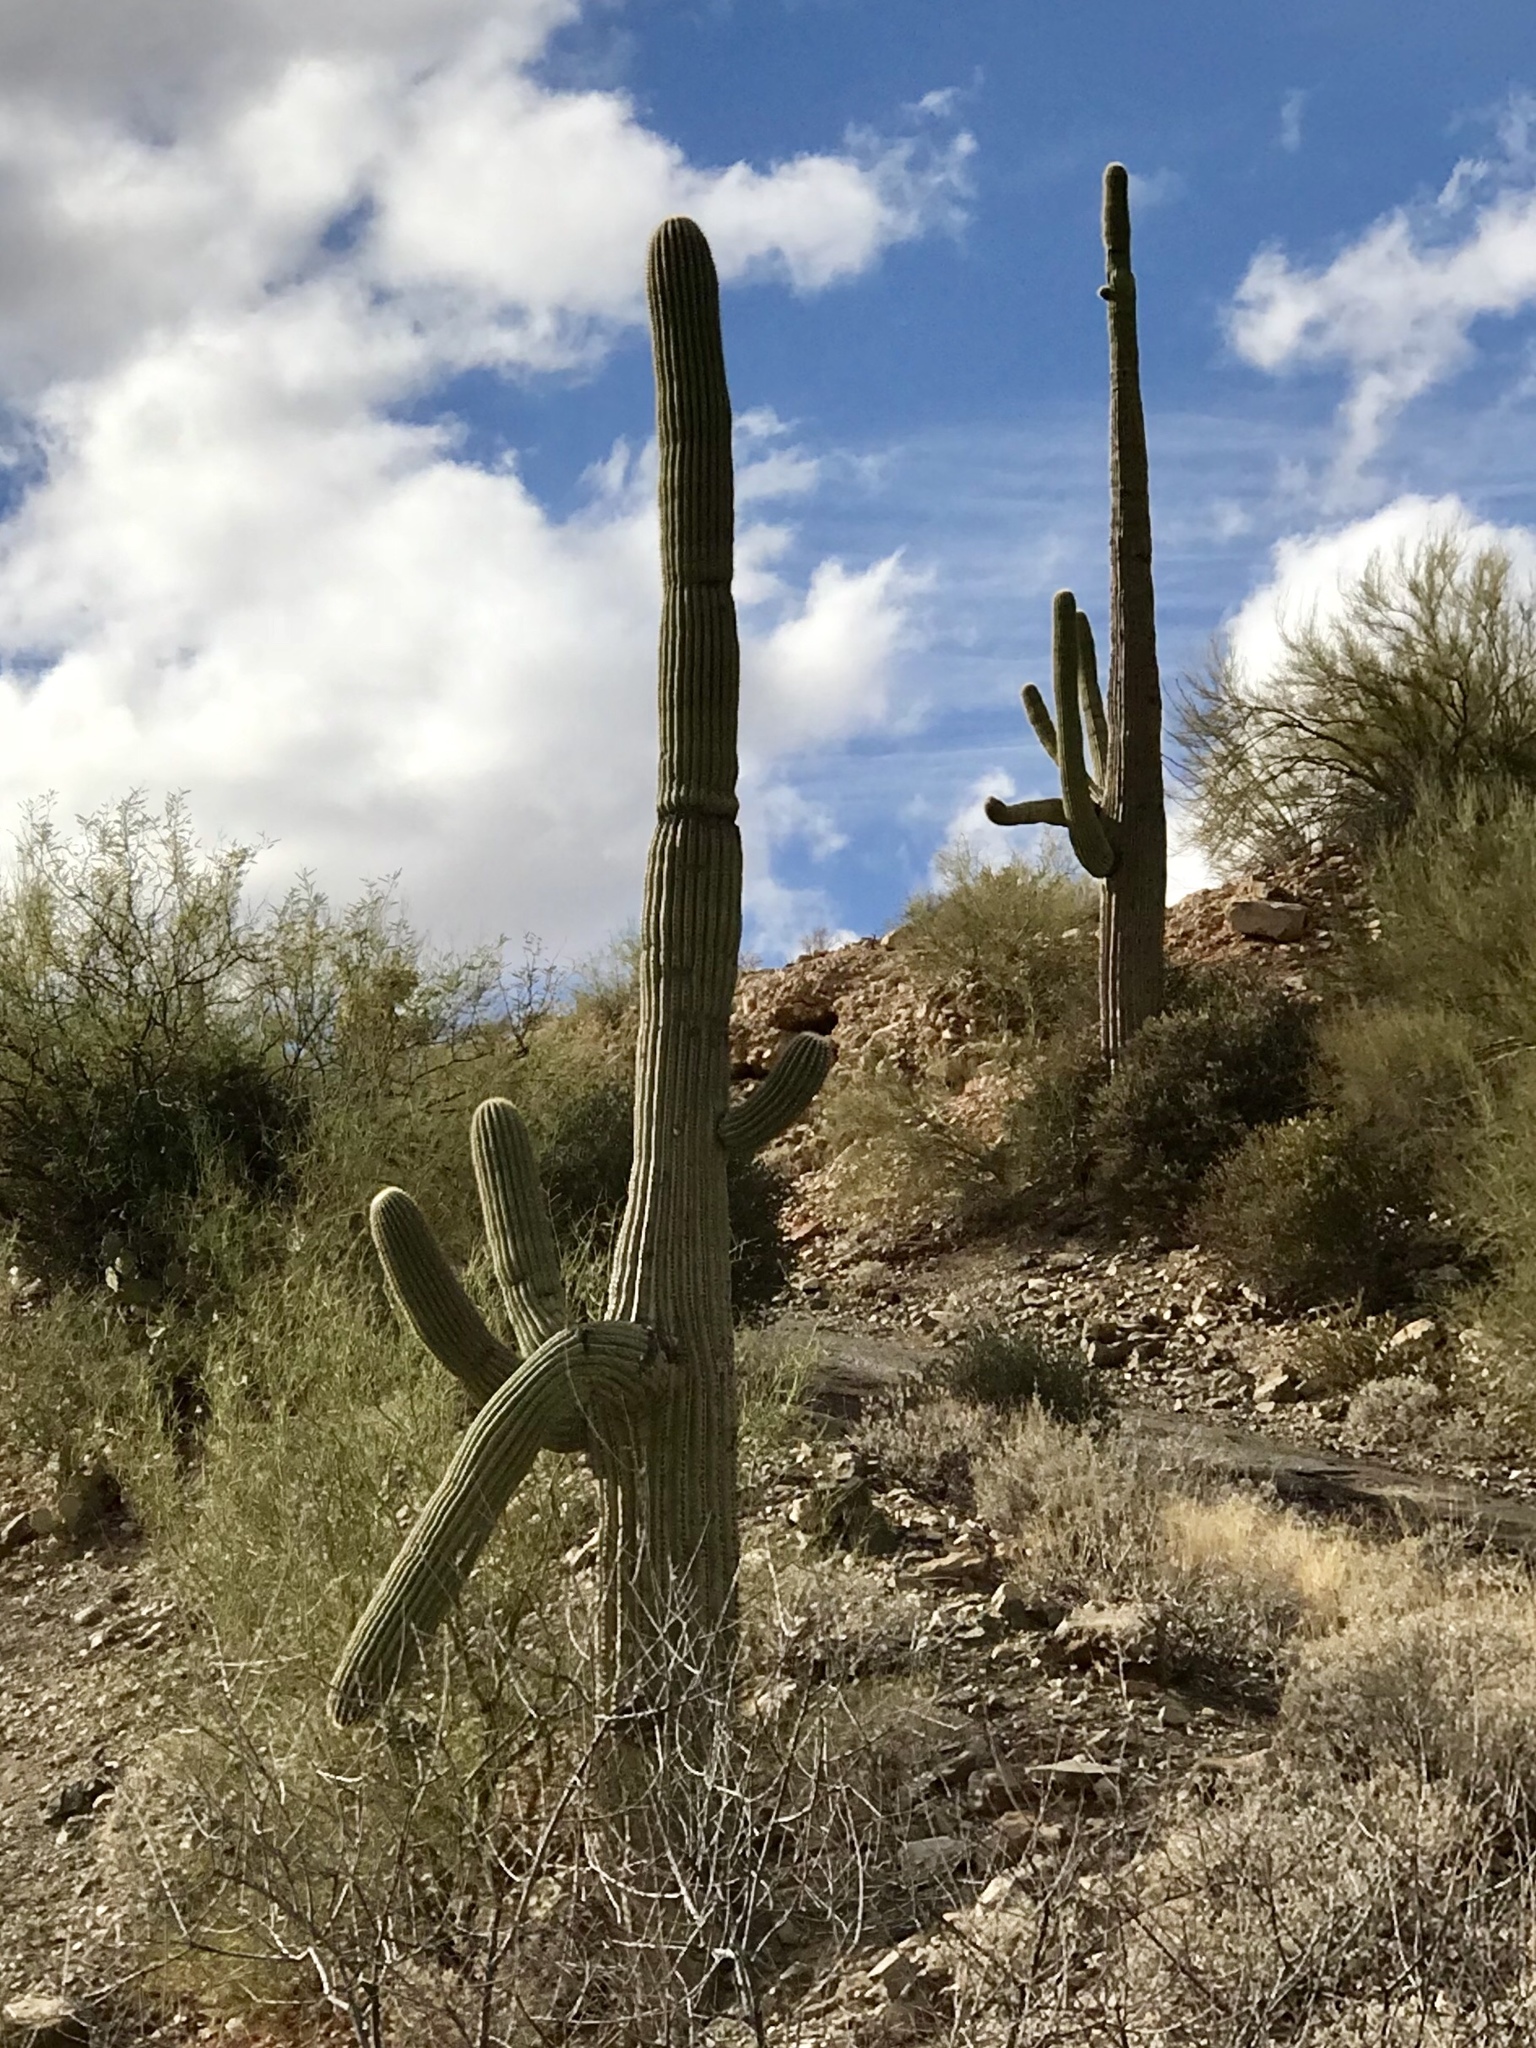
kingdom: Plantae
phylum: Tracheophyta
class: Magnoliopsida
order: Caryophyllales
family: Cactaceae
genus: Carnegiea
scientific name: Carnegiea gigantea
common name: Saguaro
